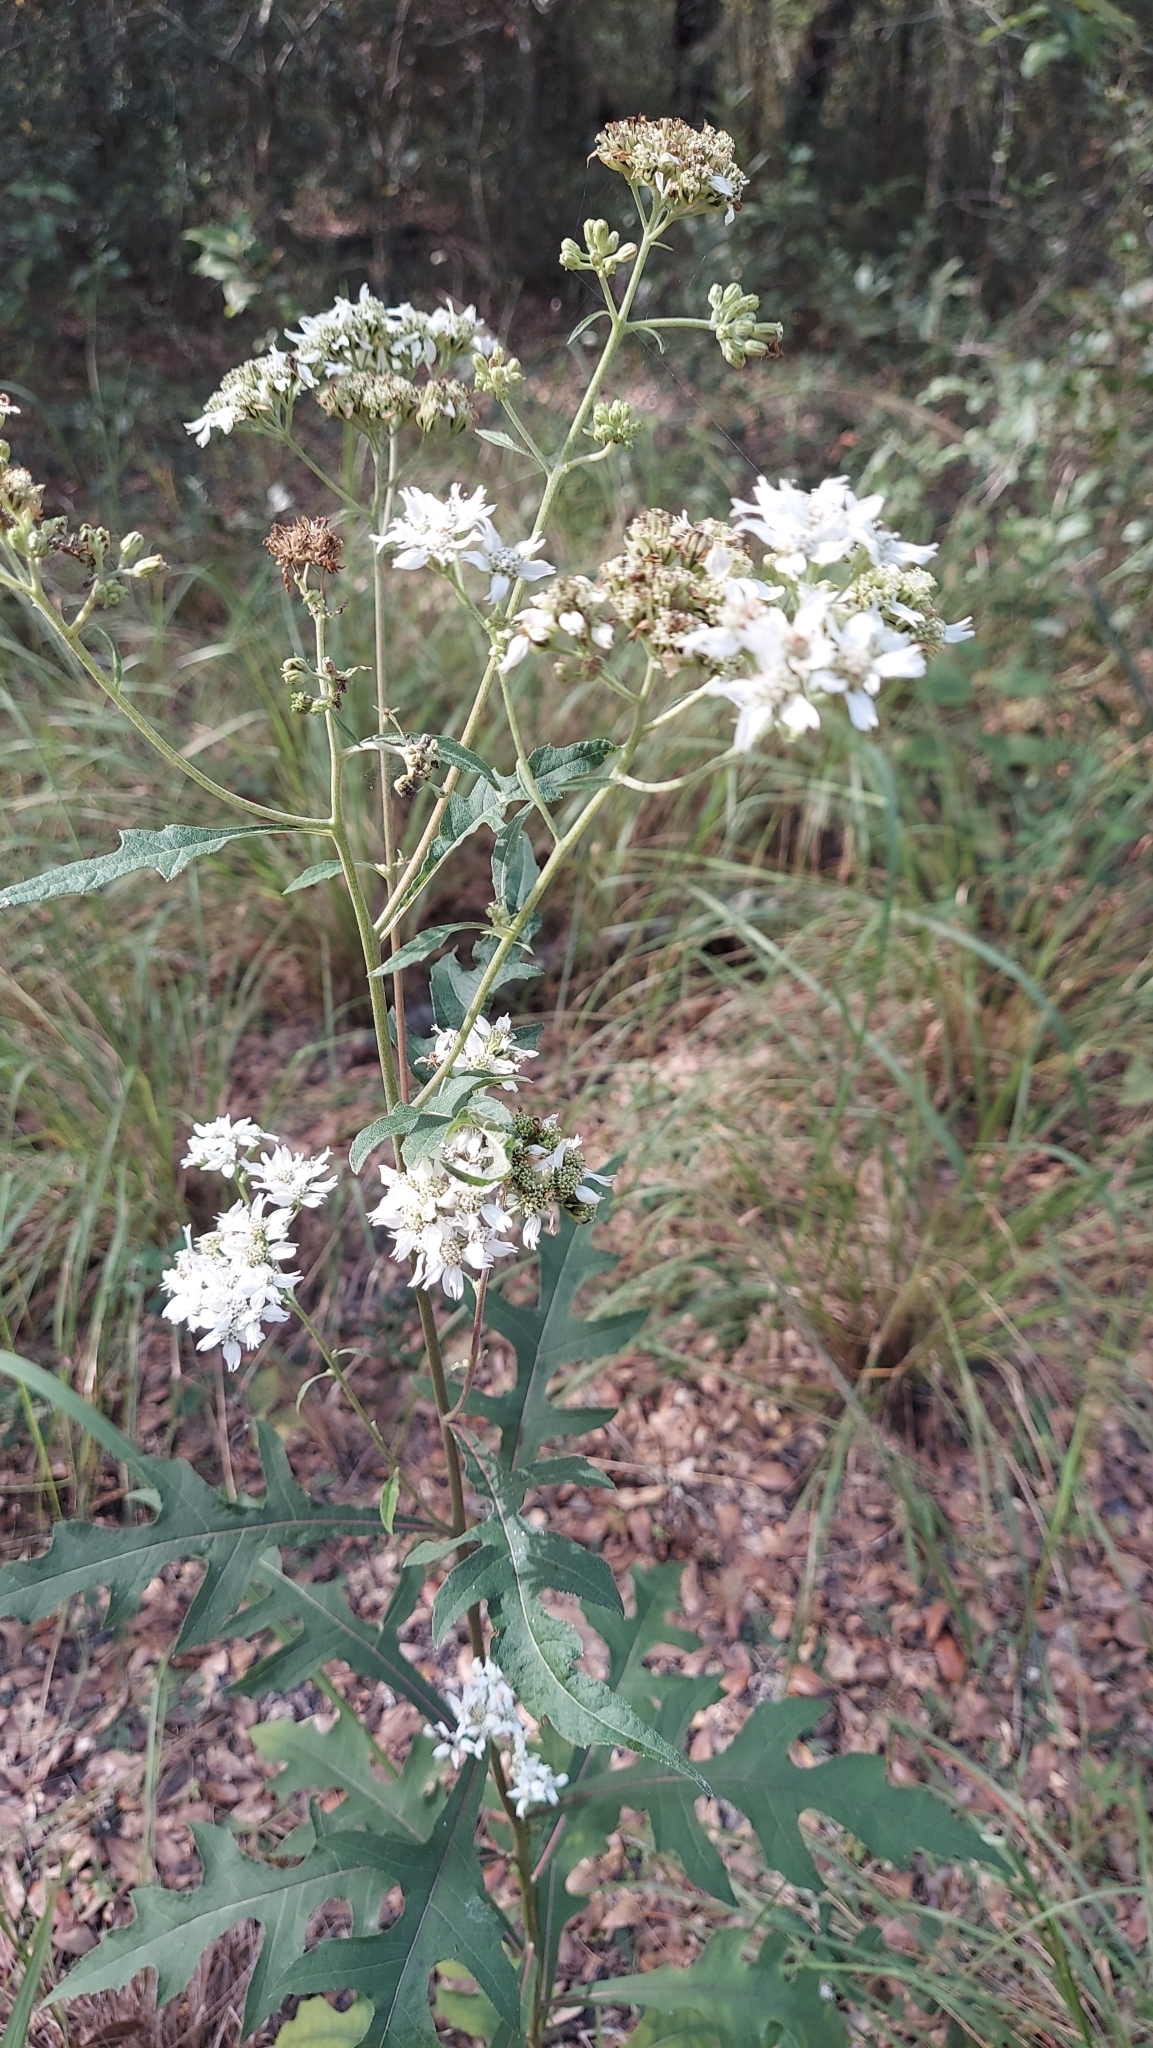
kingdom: Plantae
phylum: Tracheophyta
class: Magnoliopsida
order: Asterales
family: Asteraceae
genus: Verbesina
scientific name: Verbesina virginica
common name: Frostweed
